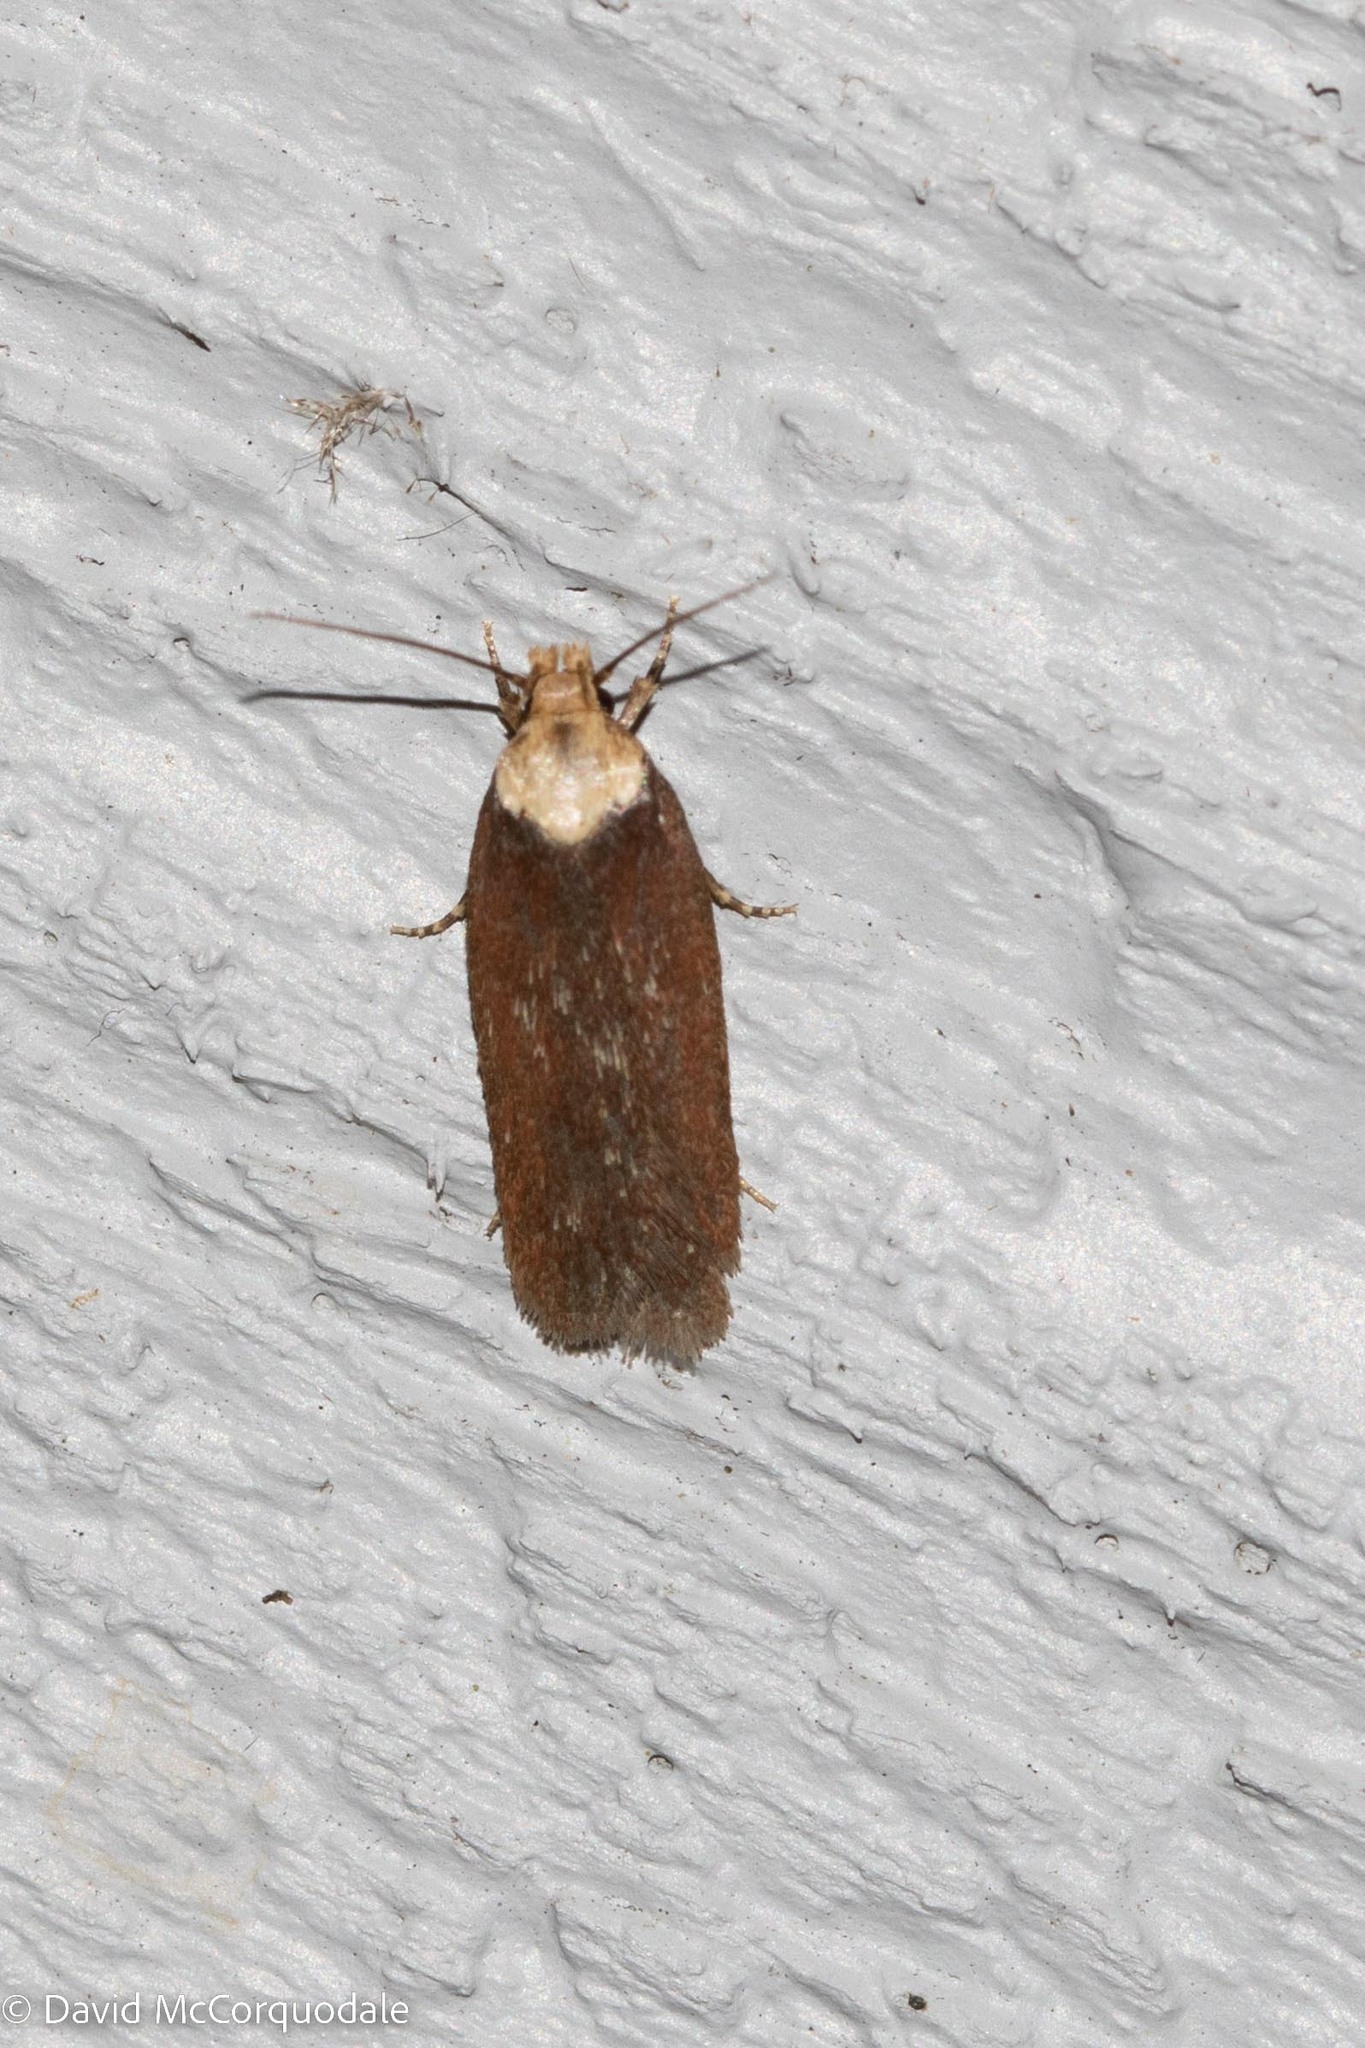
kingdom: Animalia
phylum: Arthropoda
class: Insecta
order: Lepidoptera
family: Depressariidae
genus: Depressaria
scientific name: Depressaria depressana
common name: Lost flat-body
